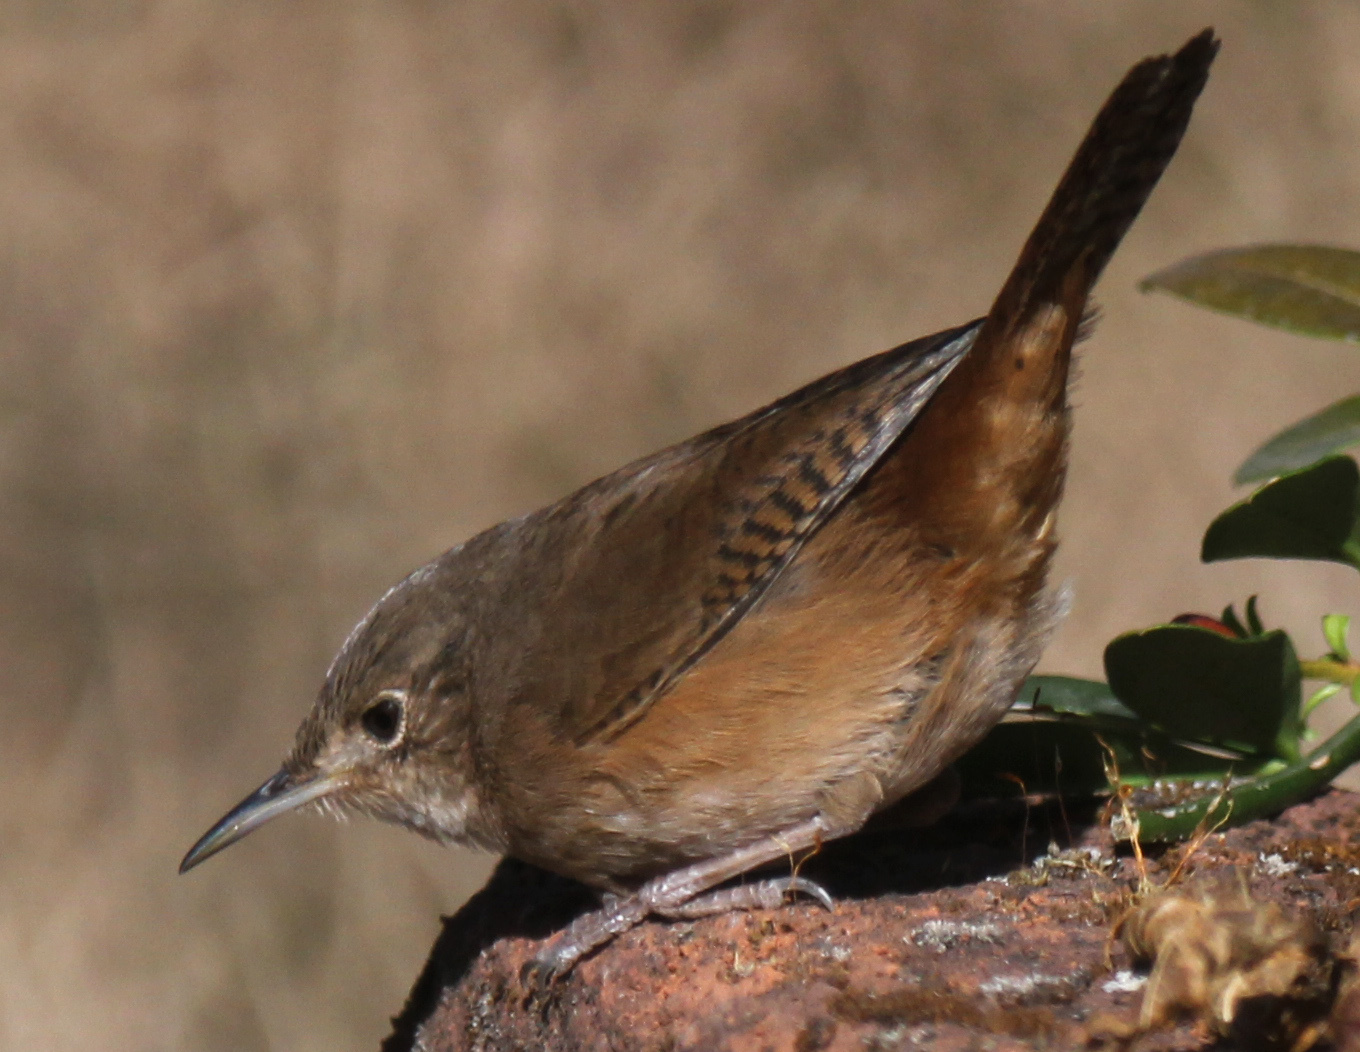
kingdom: Animalia
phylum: Chordata
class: Aves
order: Passeriformes
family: Troglodytidae
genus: Troglodytes
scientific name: Troglodytes aedon
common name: House wren
